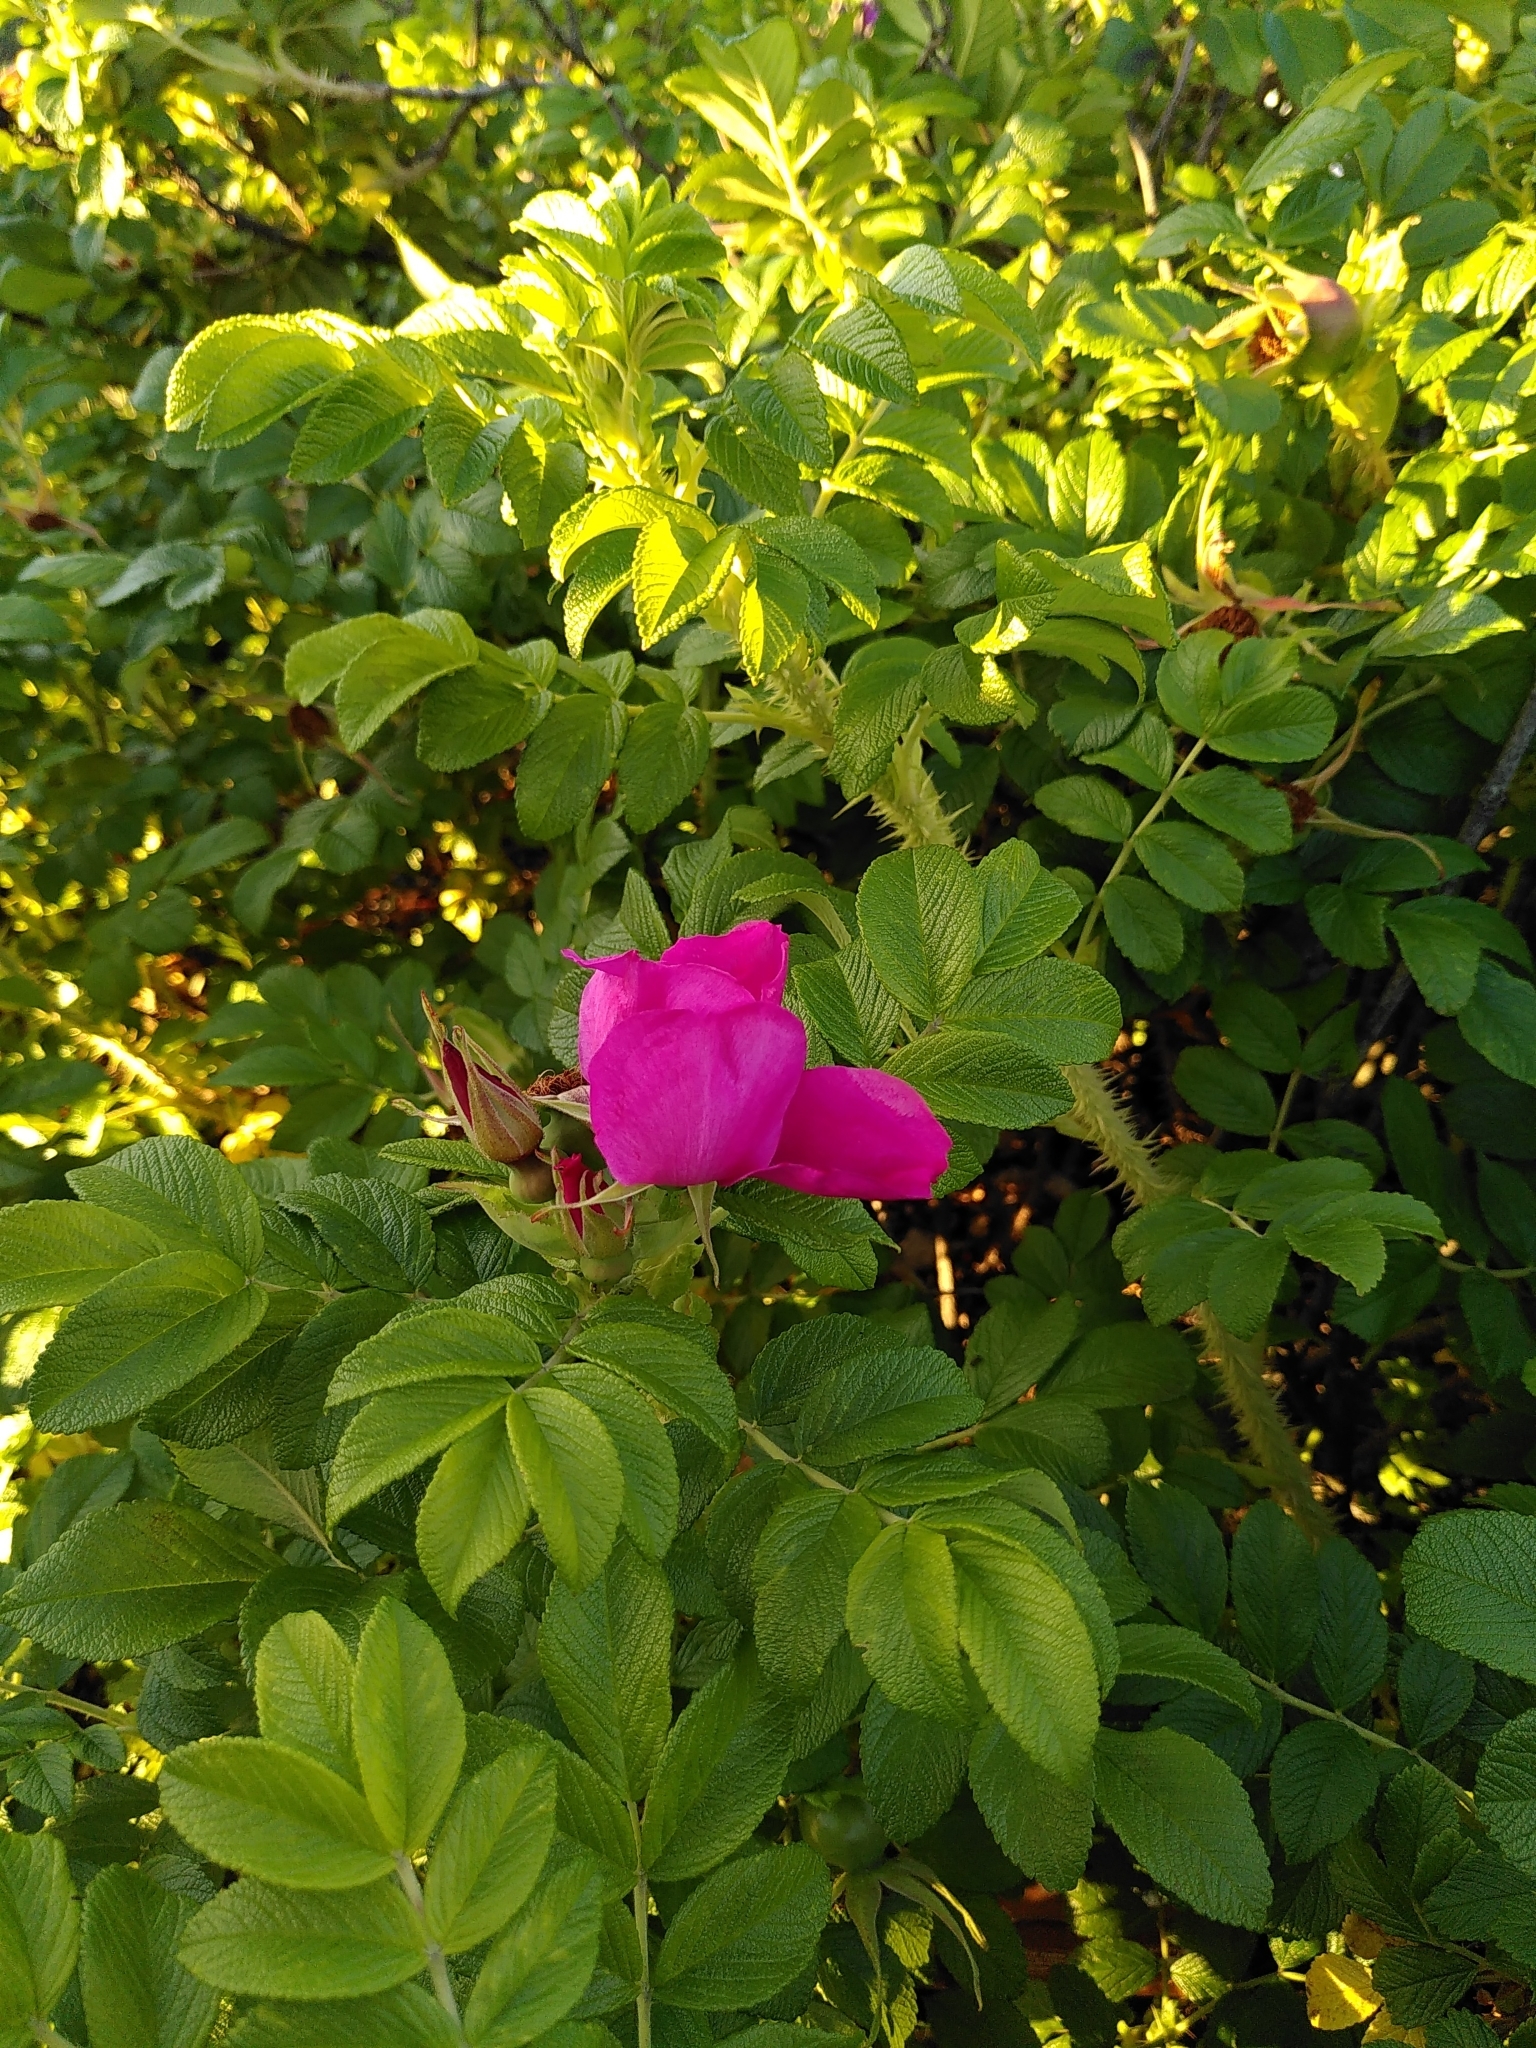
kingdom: Plantae
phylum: Tracheophyta
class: Magnoliopsida
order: Rosales
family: Rosaceae
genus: Rosa
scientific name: Rosa rugosa
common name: Japanese rose
